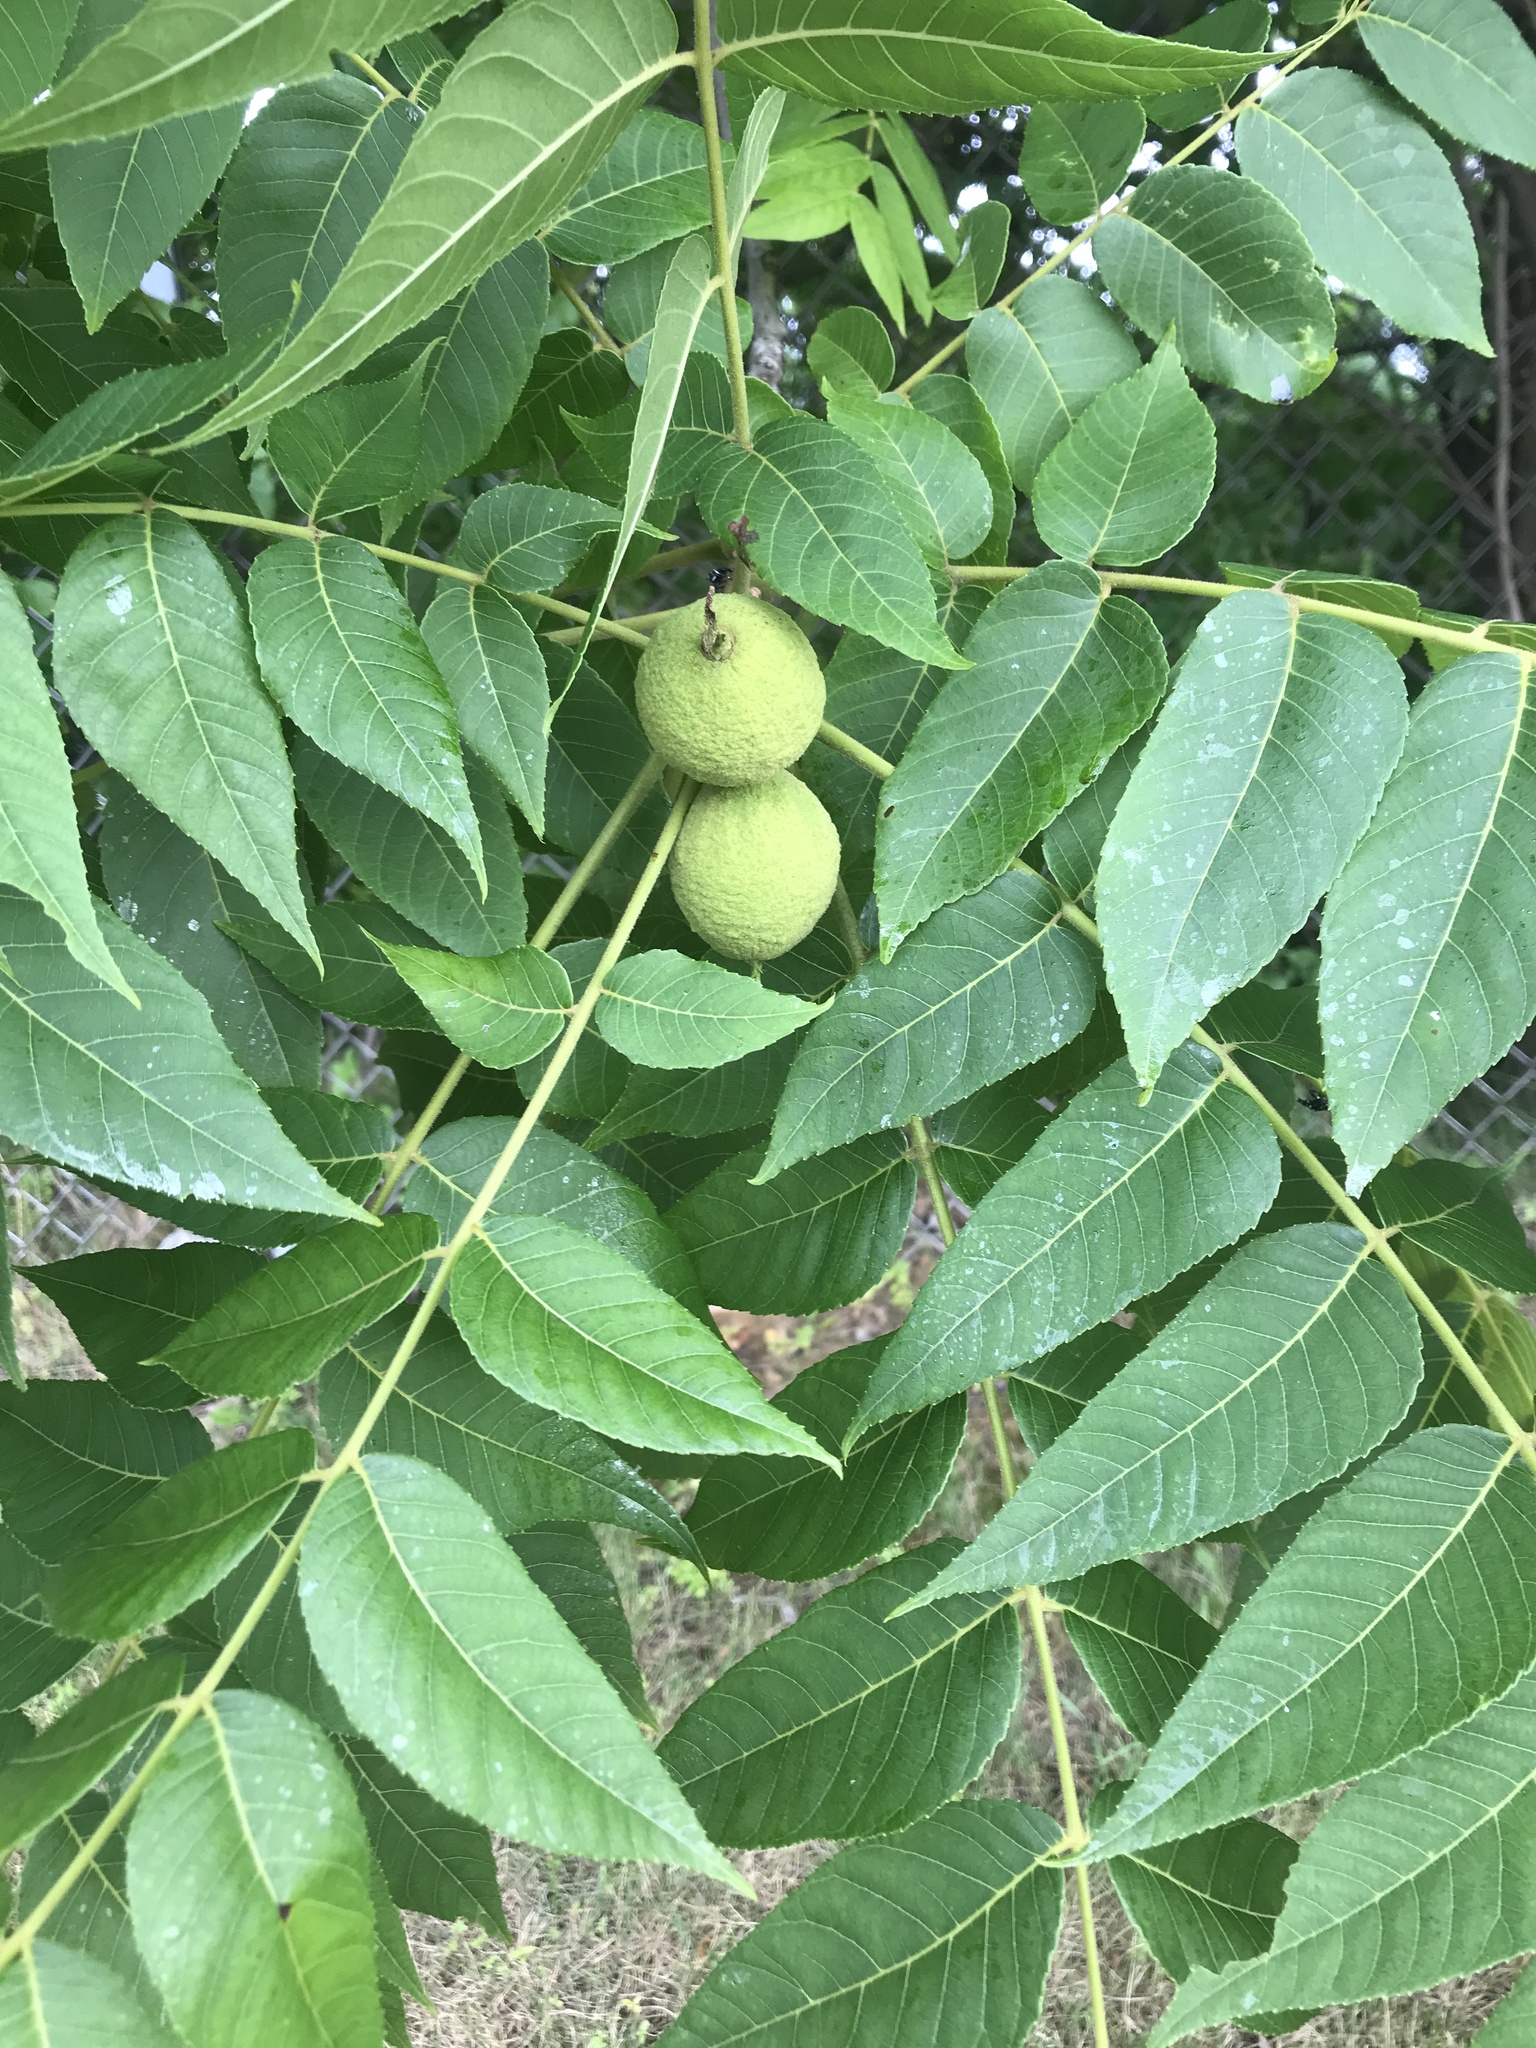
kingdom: Plantae
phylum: Tracheophyta
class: Magnoliopsida
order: Fagales
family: Juglandaceae
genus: Juglans
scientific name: Juglans nigra
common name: Black walnut
